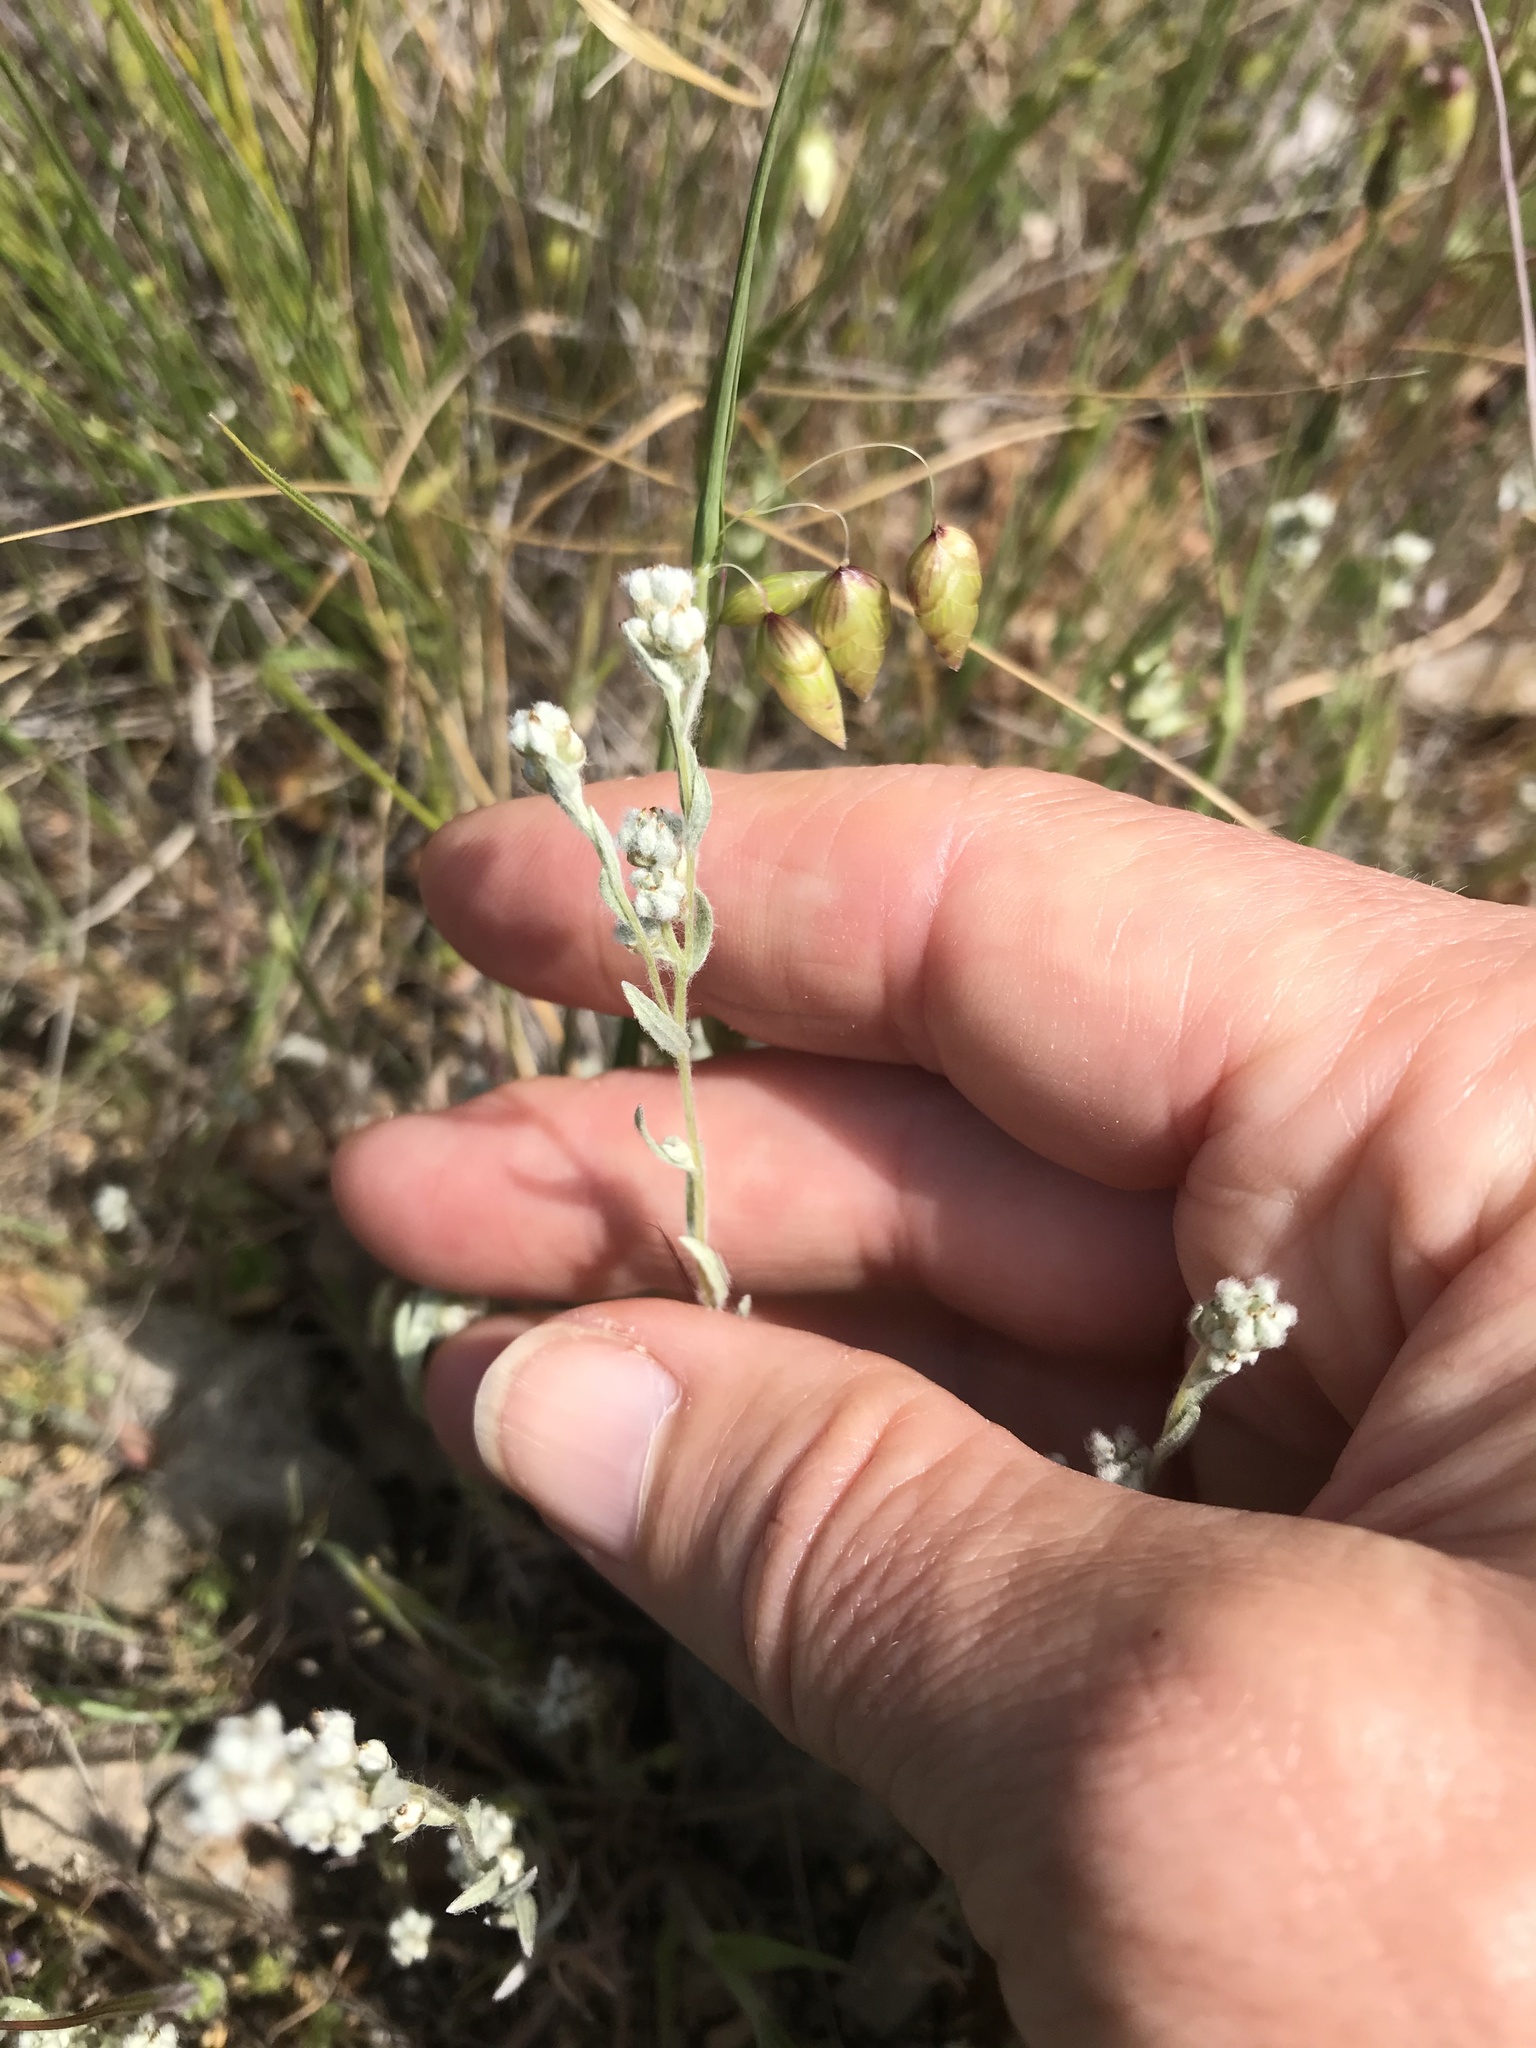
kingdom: Plantae
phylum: Tracheophyta
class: Magnoliopsida
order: Asterales
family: Asteraceae
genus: Bombycilaena
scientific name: Bombycilaena californica
